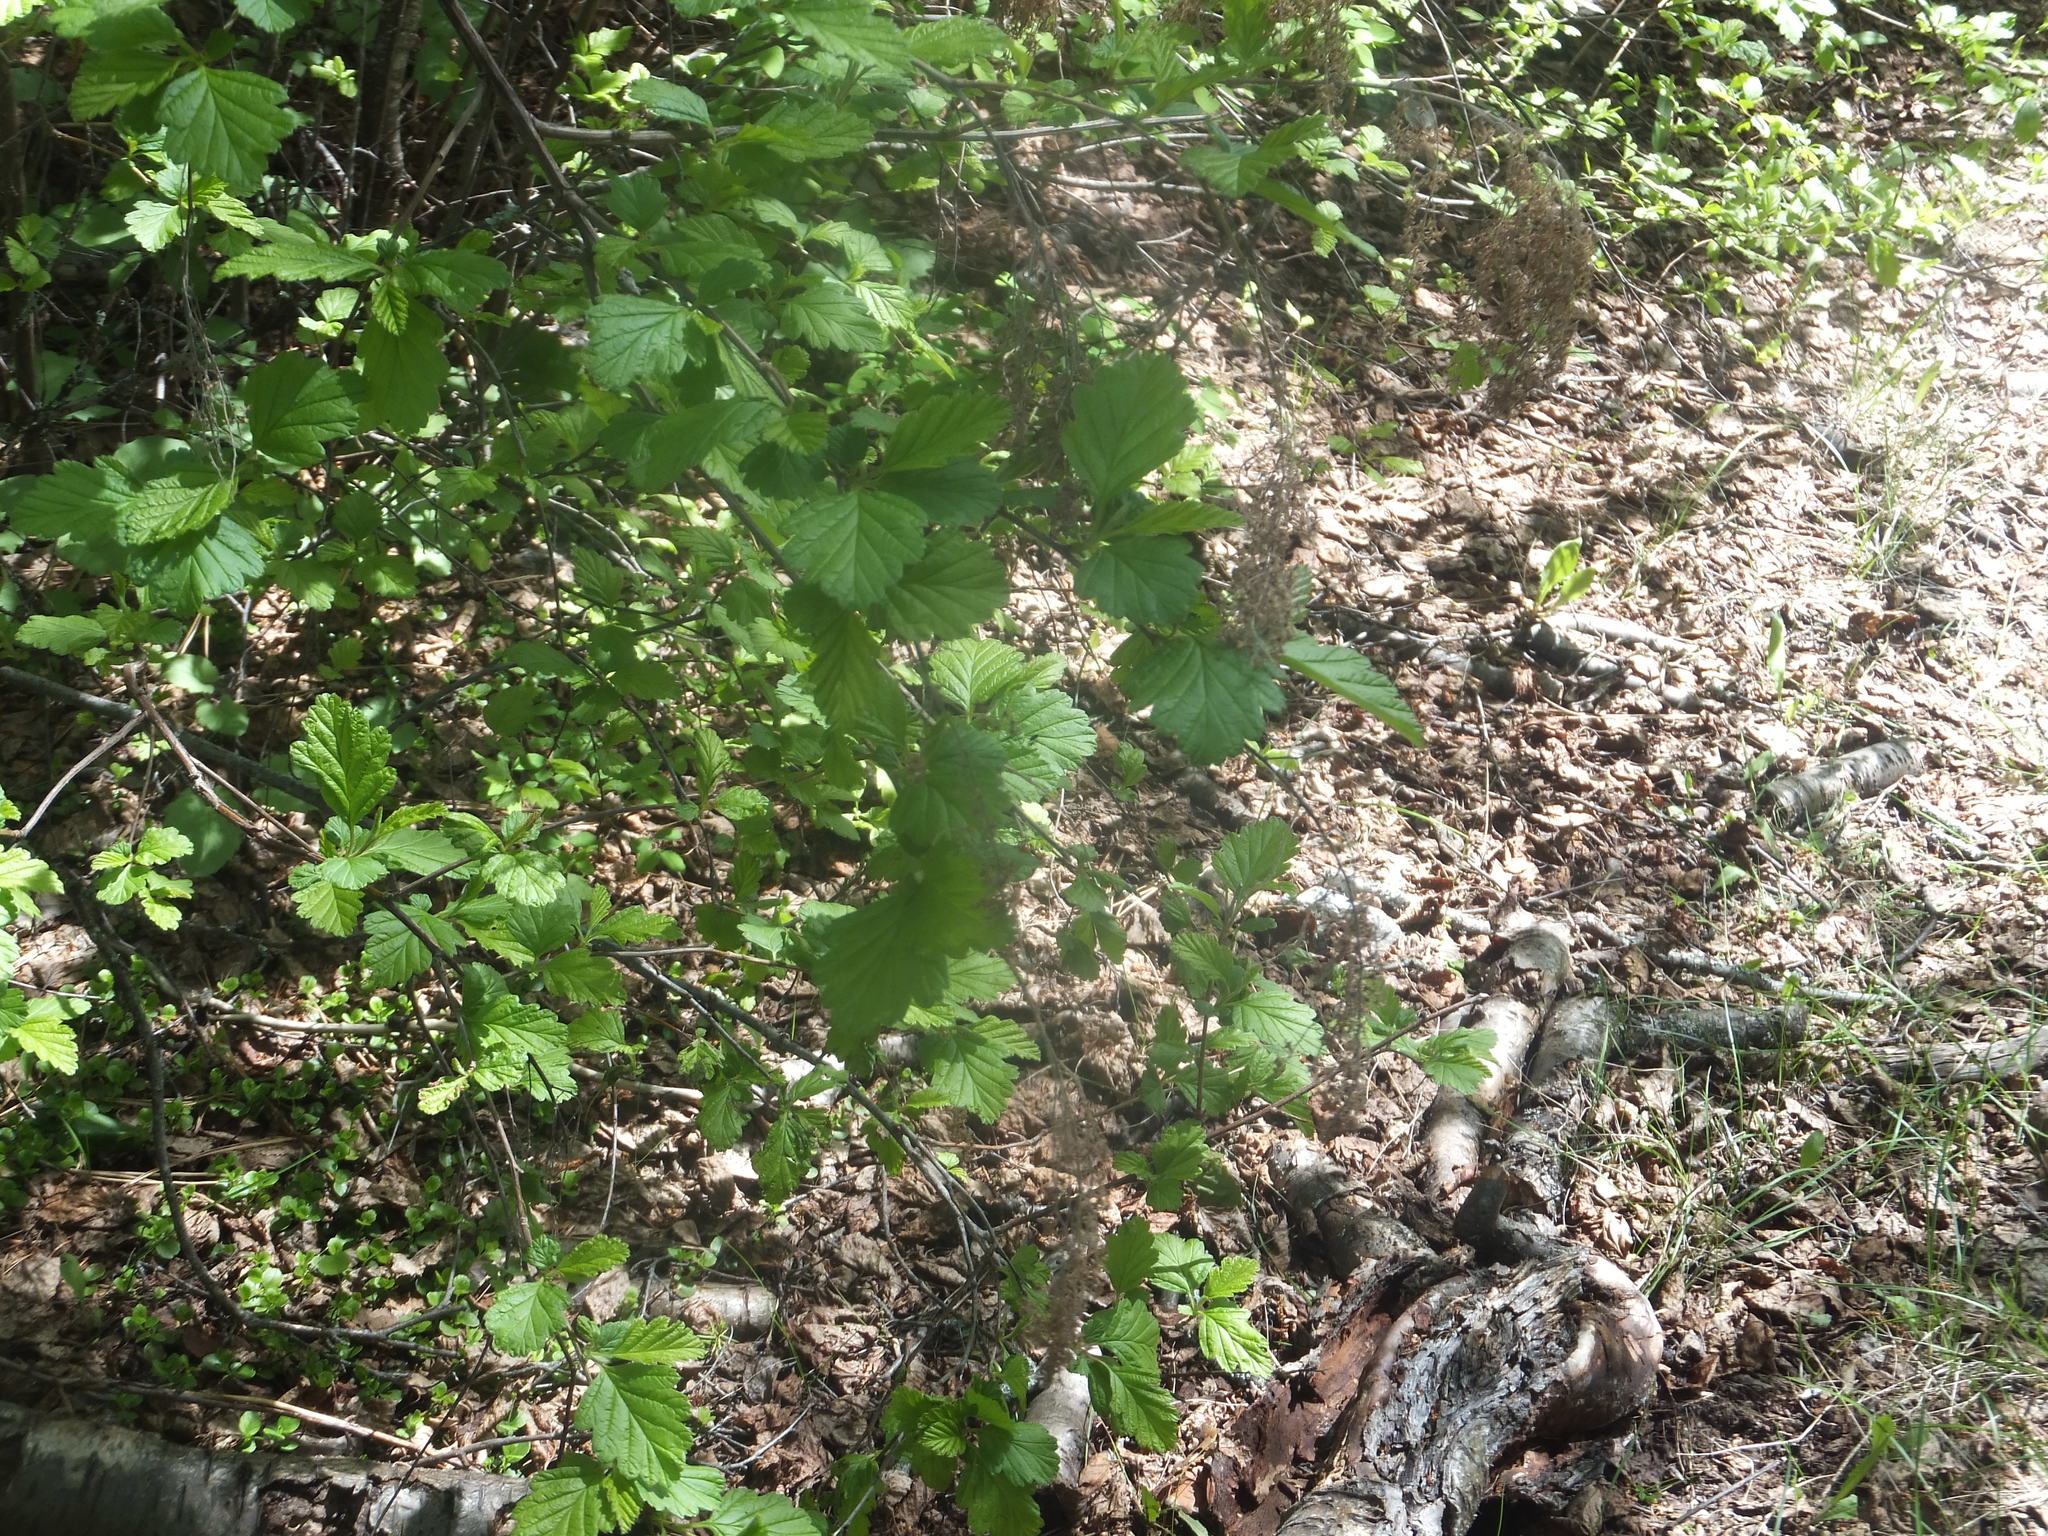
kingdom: Plantae
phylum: Tracheophyta
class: Magnoliopsida
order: Rosales
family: Rosaceae
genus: Holodiscus
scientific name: Holodiscus discolor
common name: Oceanspray
